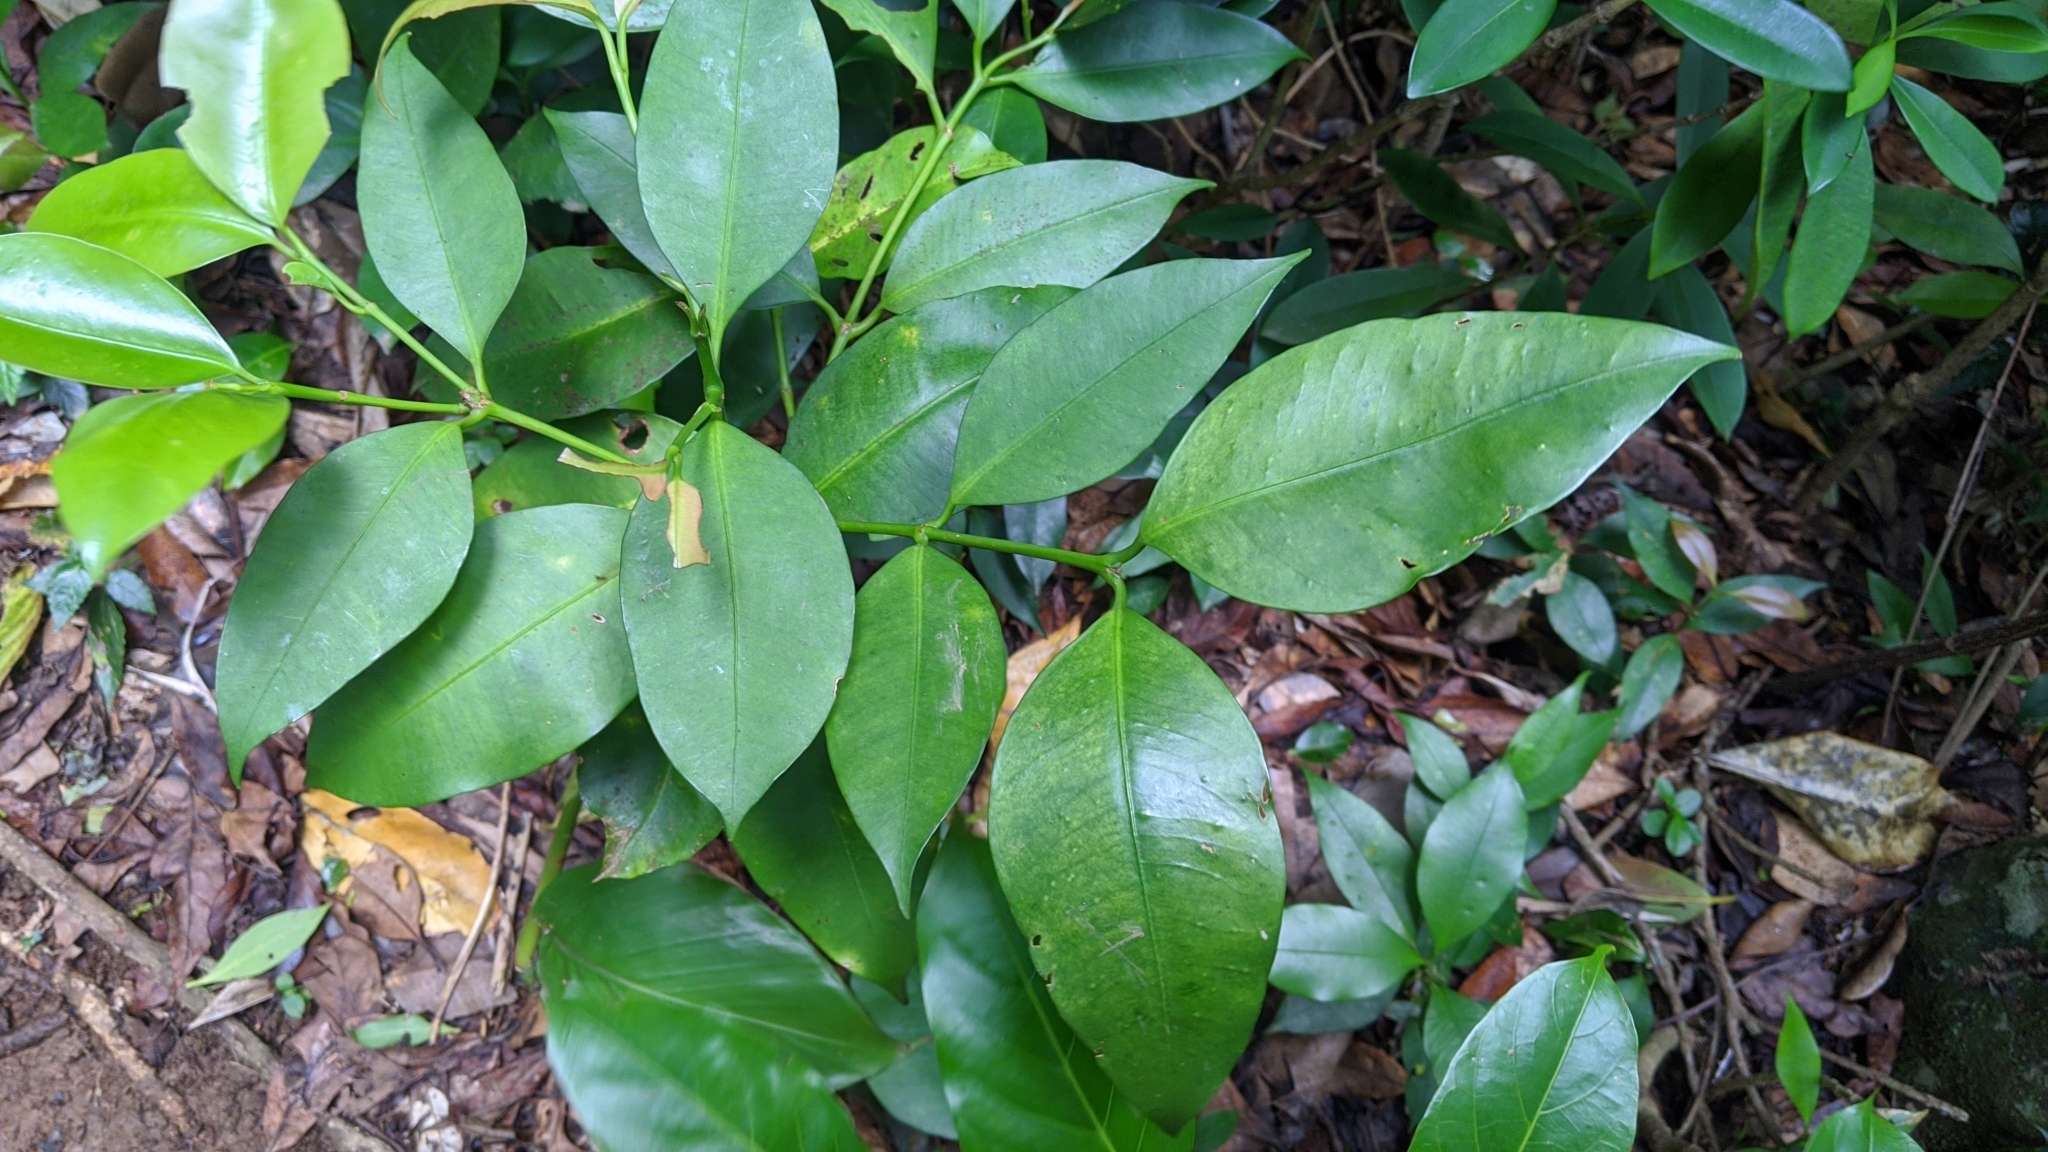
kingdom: Plantae
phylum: Tracheophyta
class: Magnoliopsida
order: Malpighiales
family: Clusiaceae
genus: Garcinia
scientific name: Garcinia linii
